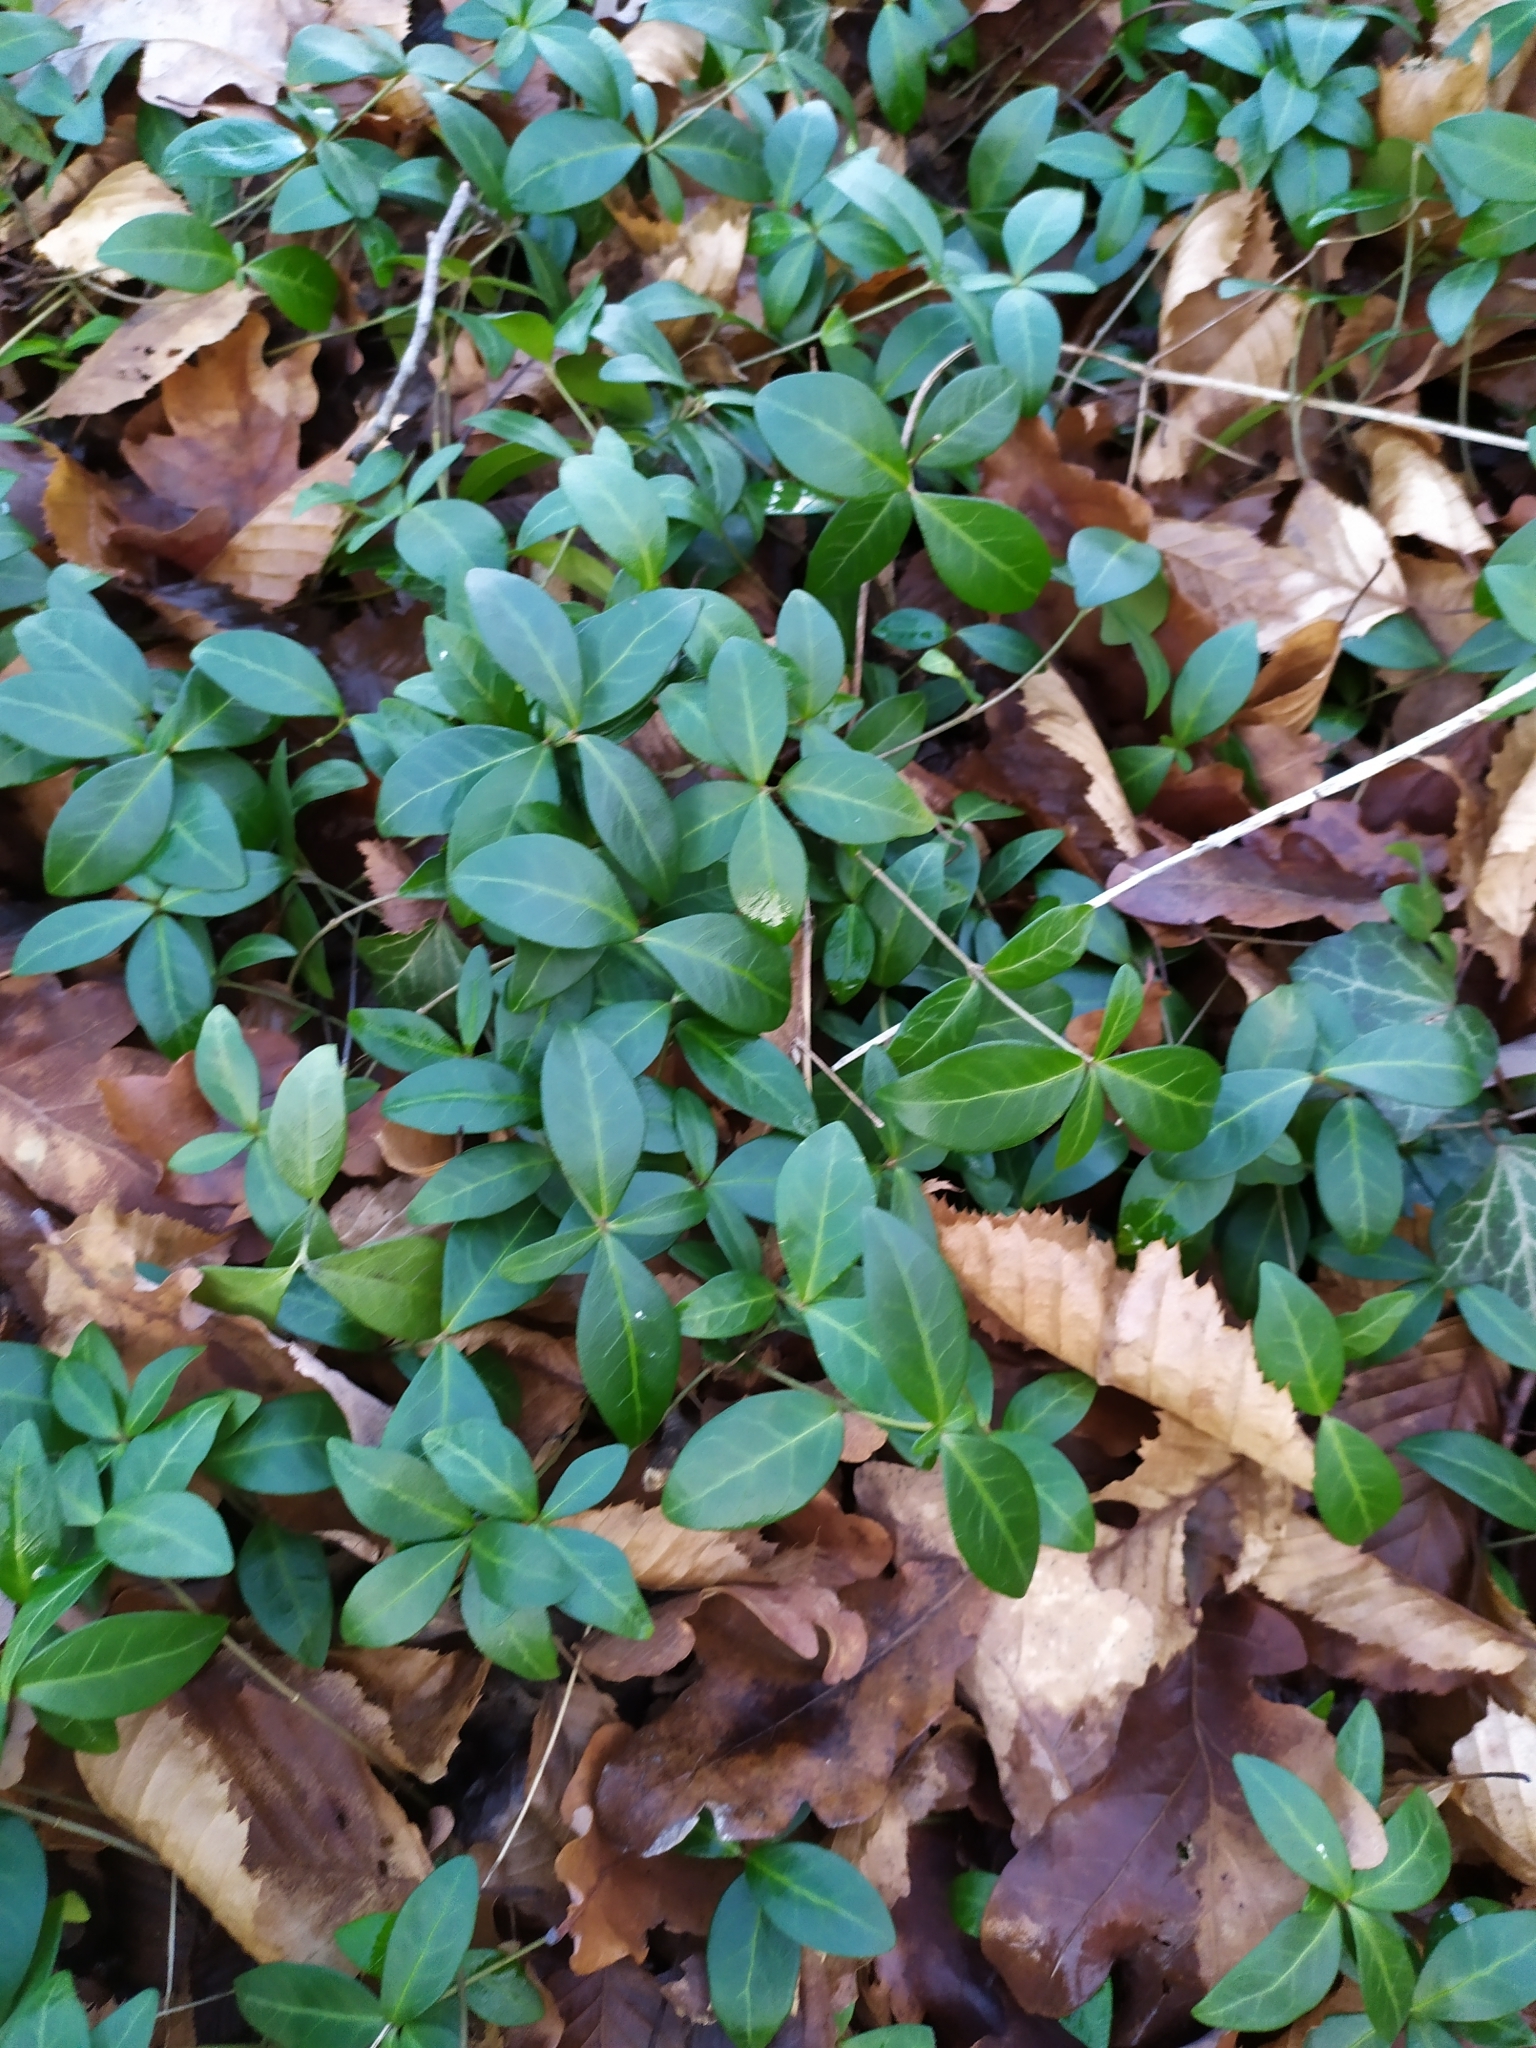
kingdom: Plantae
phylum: Tracheophyta
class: Magnoliopsida
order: Gentianales
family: Apocynaceae
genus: Vinca
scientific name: Vinca minor
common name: Lesser periwinkle
